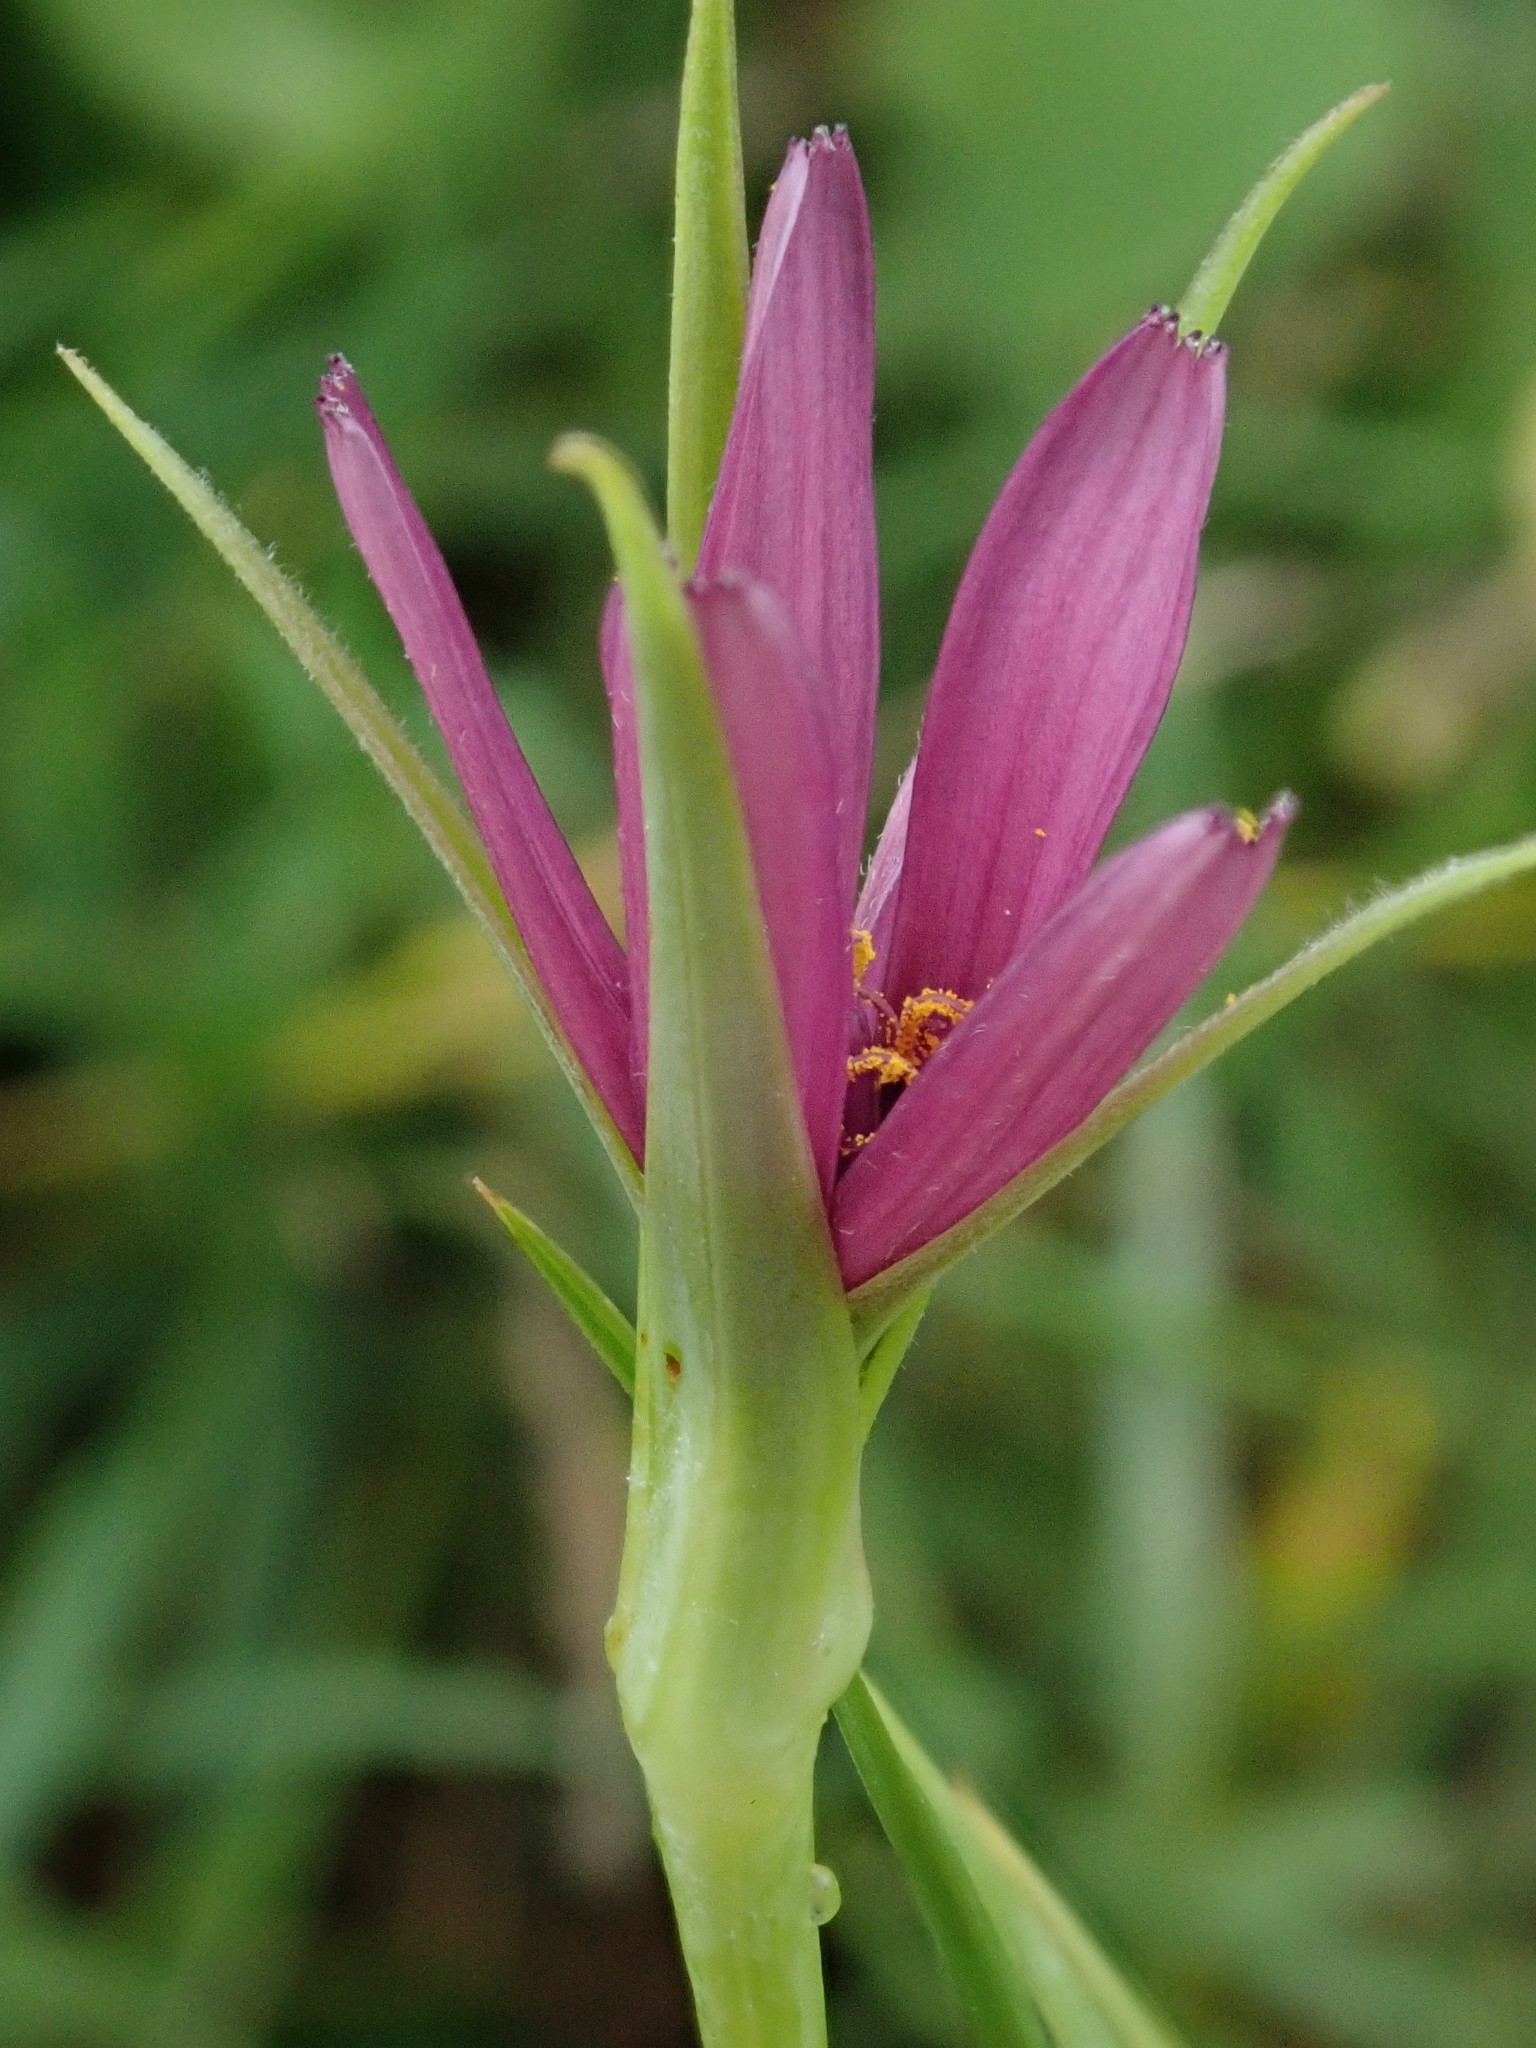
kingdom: Plantae
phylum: Tracheophyta
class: Magnoliopsida
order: Asterales
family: Asteraceae
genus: Tragopogon
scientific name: Tragopogon porrifolius
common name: Salsify
